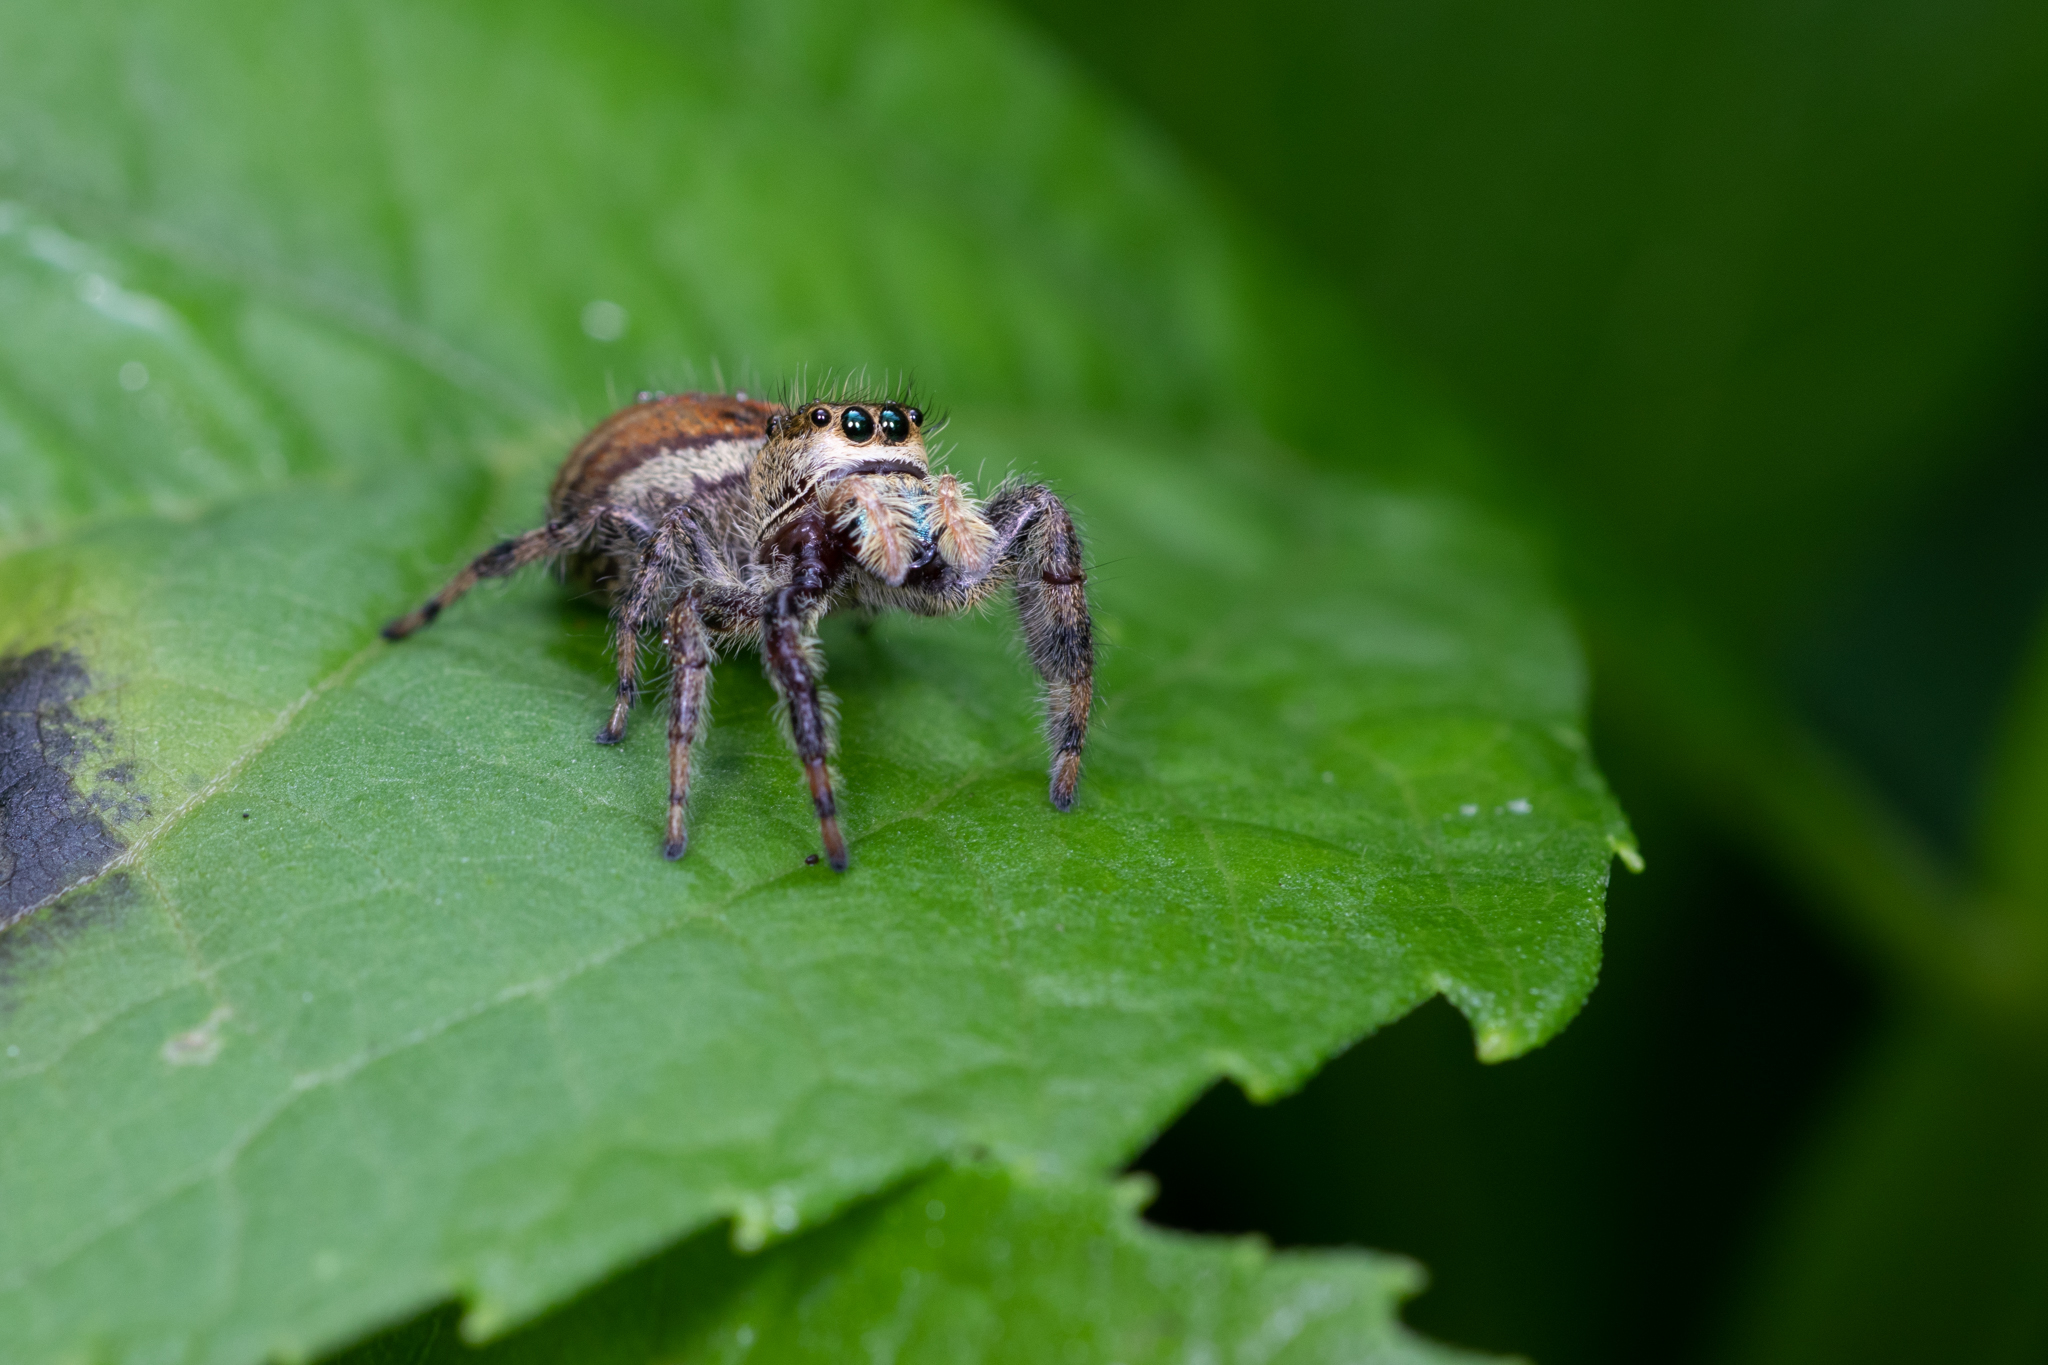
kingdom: Animalia
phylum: Arthropoda
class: Arachnida
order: Araneae
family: Salticidae
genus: Phidippus
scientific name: Phidippus clarus
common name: Brilliant jumping spider
